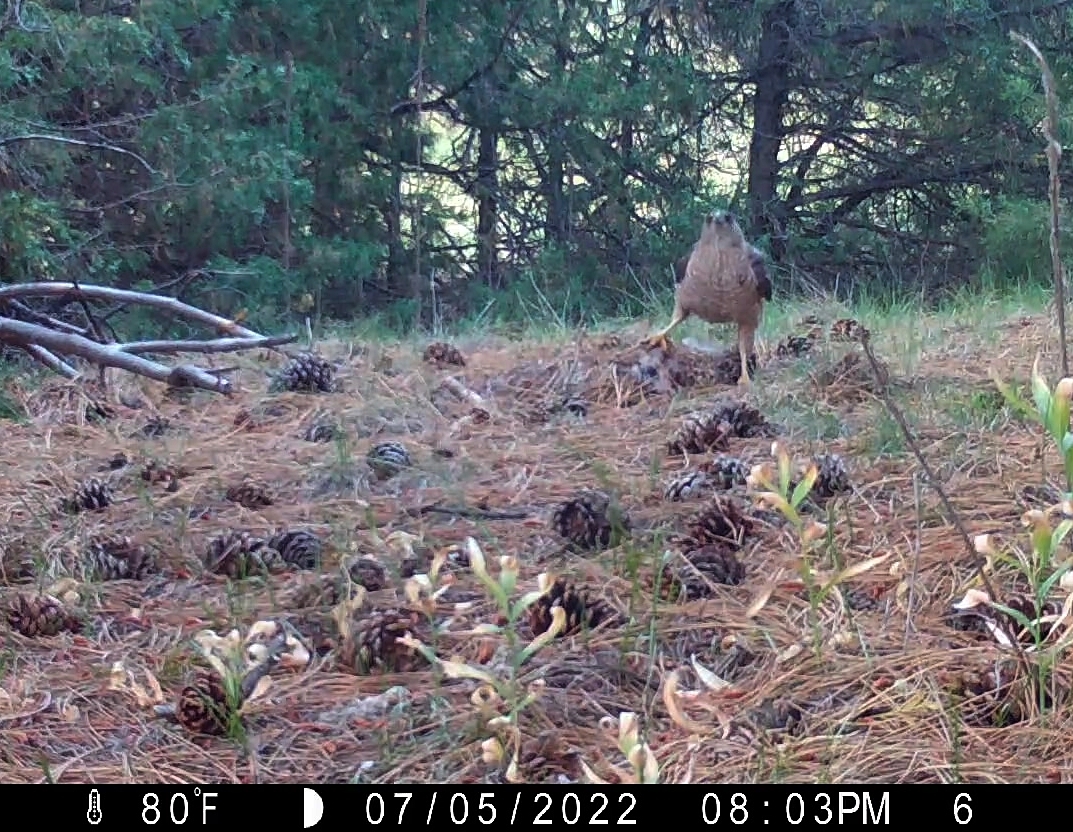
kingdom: Animalia
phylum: Chordata
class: Aves
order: Accipitriformes
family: Accipitridae
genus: Accipiter
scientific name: Accipiter cooperii
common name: Cooper's hawk
